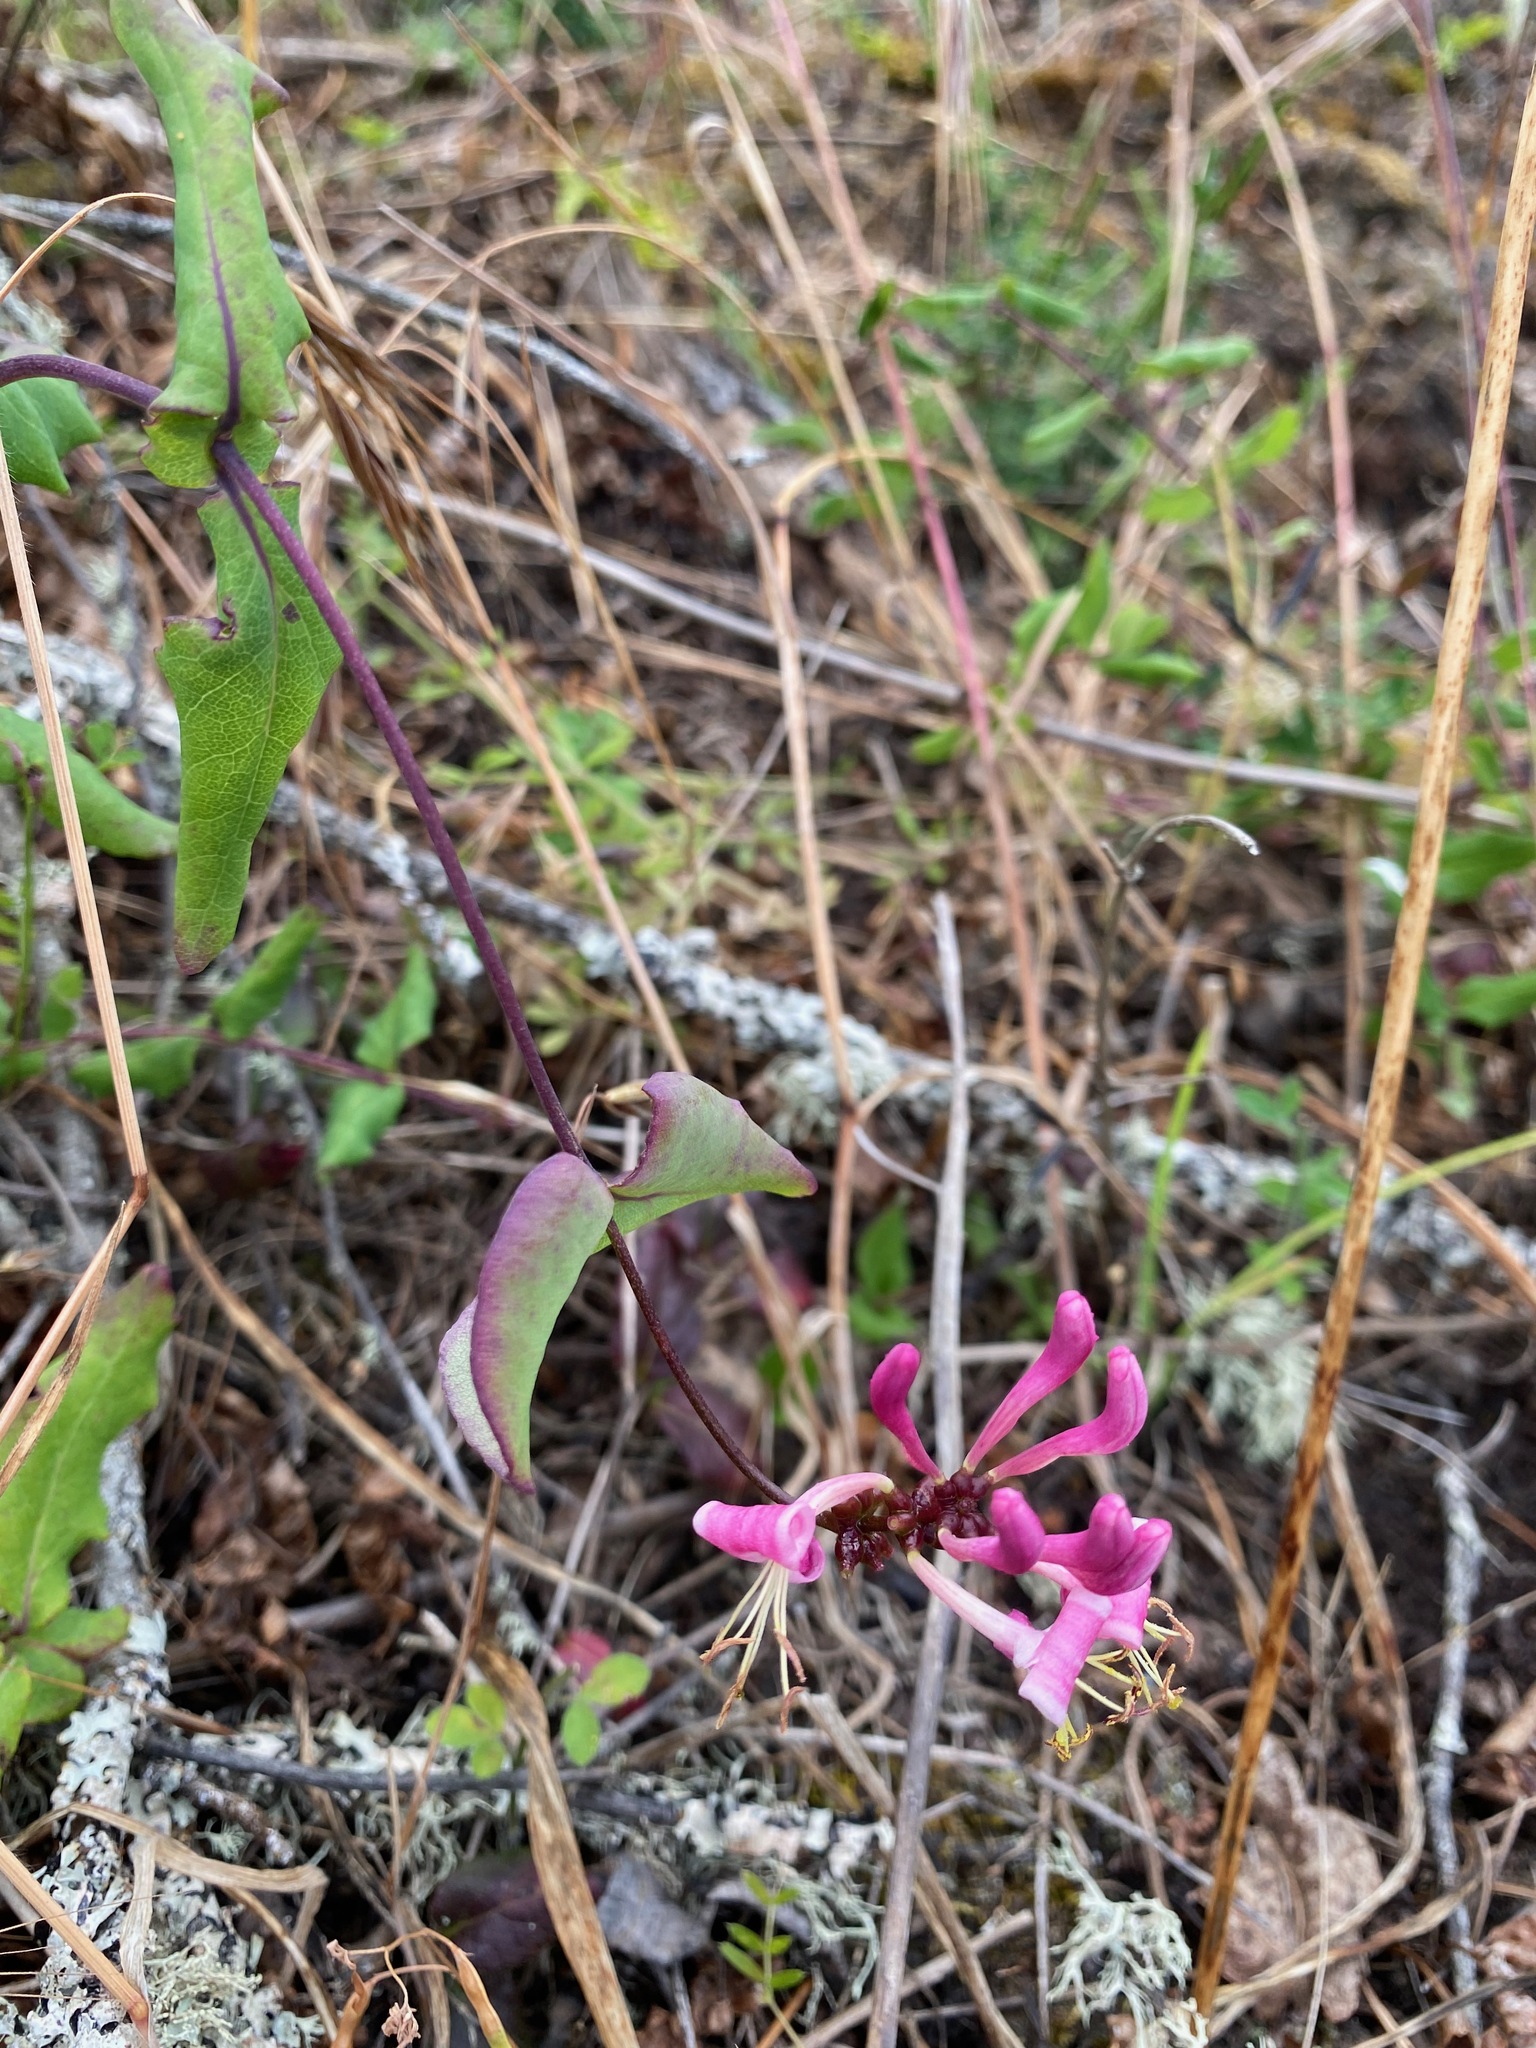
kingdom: Plantae
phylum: Tracheophyta
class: Magnoliopsida
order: Dipsacales
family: Caprifoliaceae
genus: Lonicera
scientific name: Lonicera hispidula
